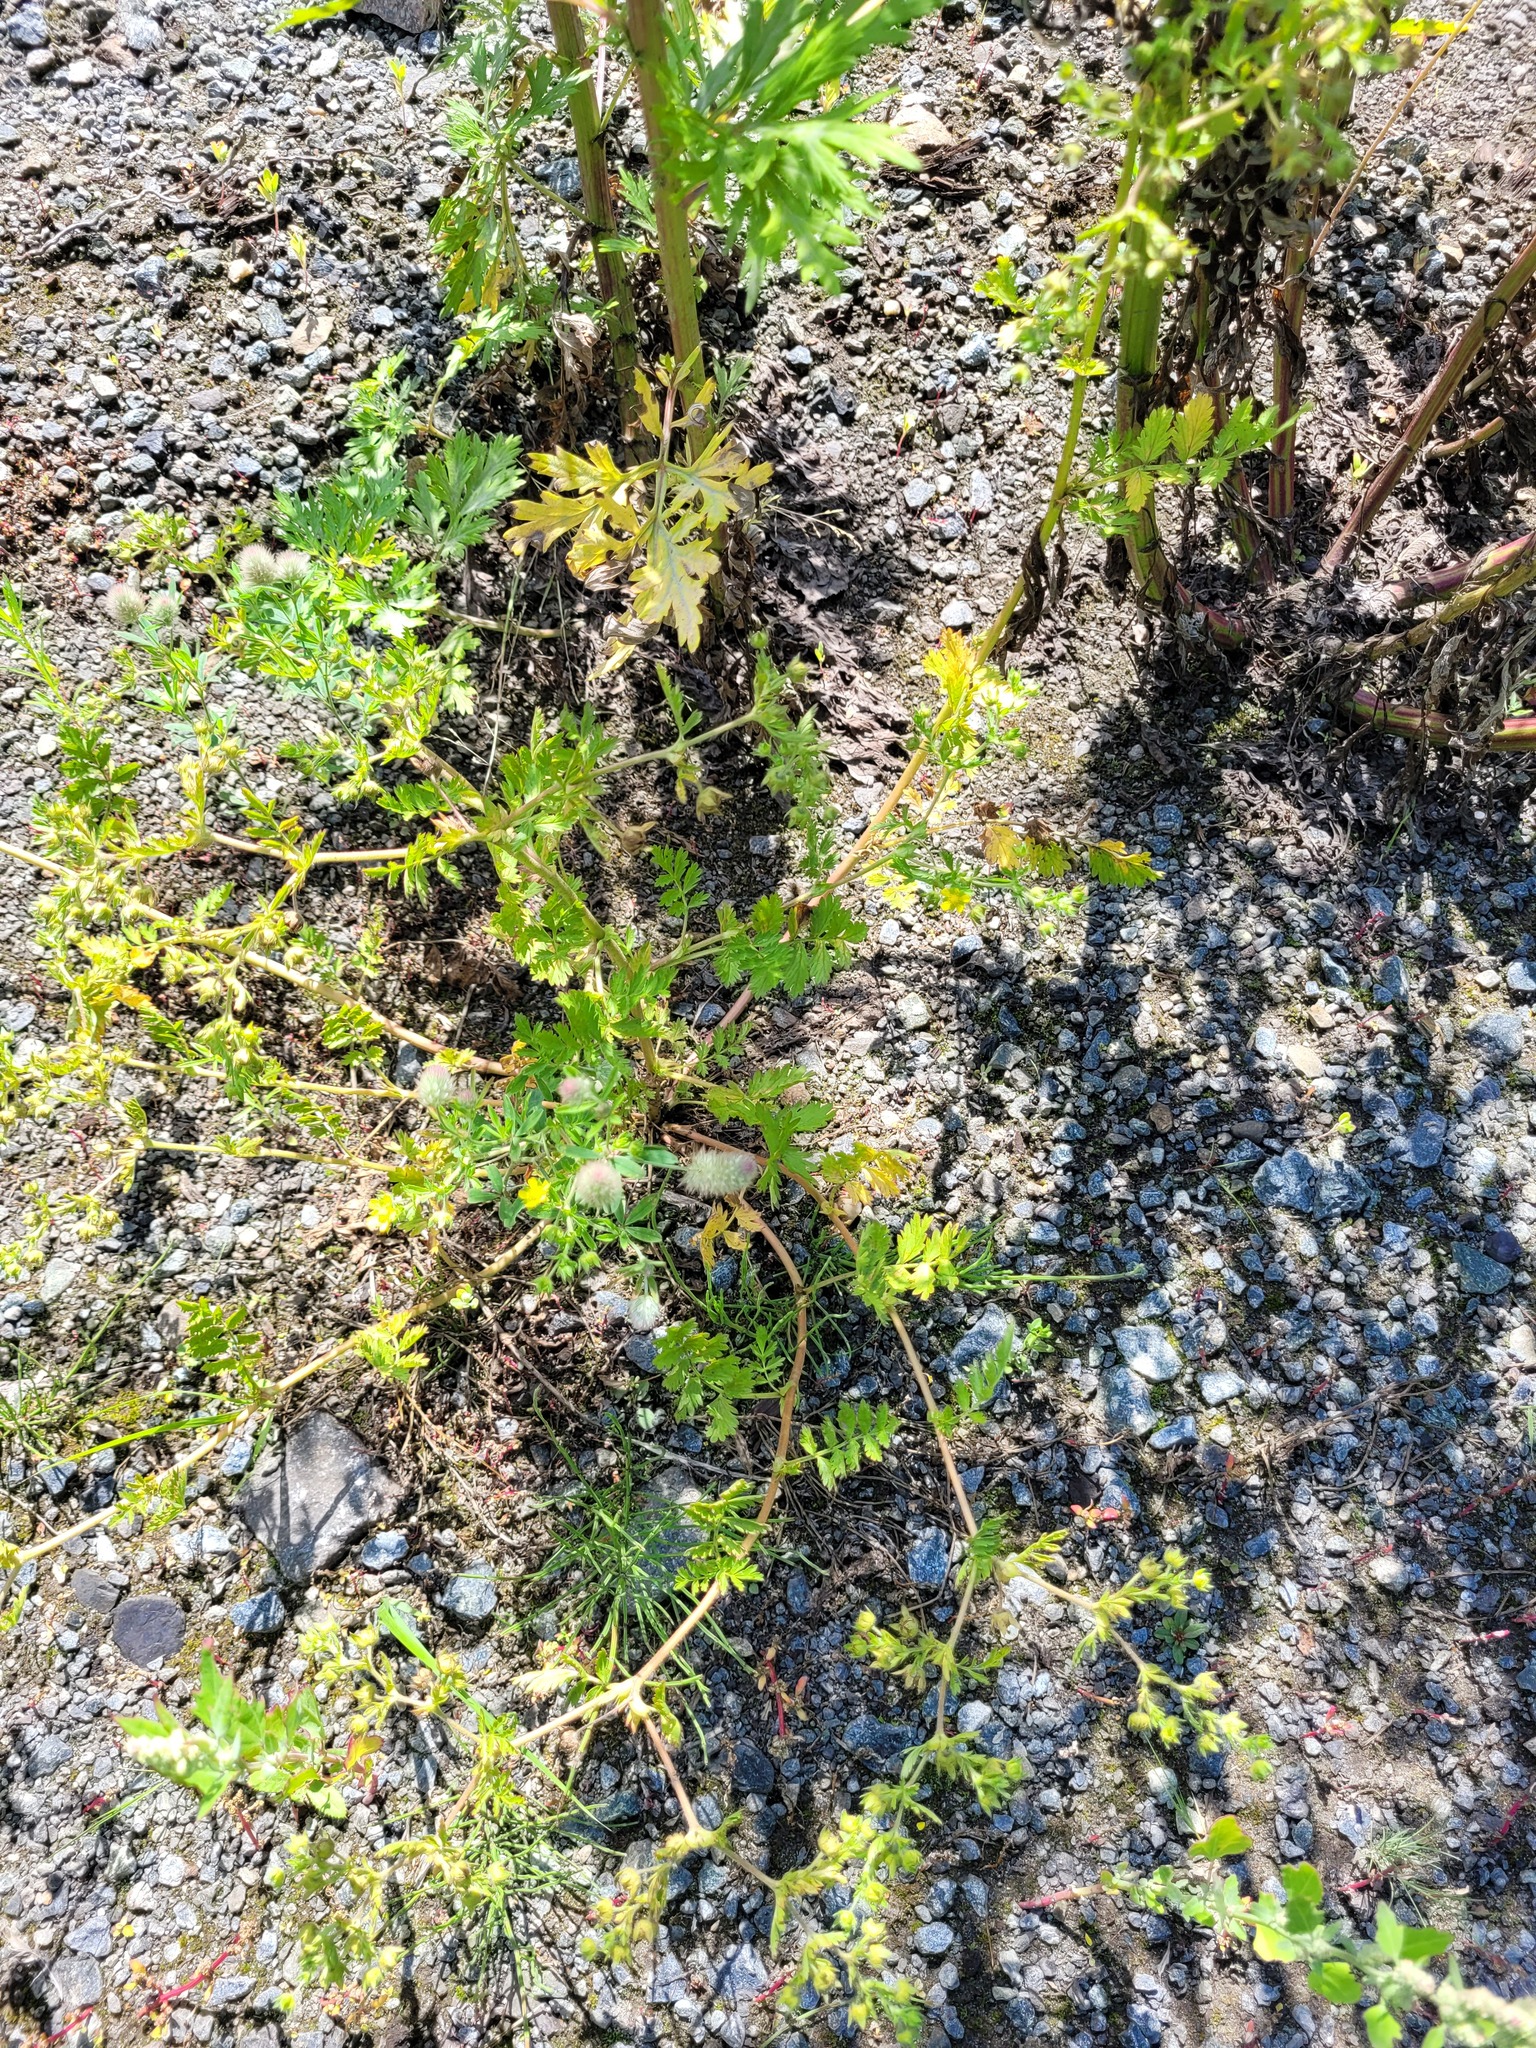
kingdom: Plantae
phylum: Tracheophyta
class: Magnoliopsida
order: Fabales
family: Fabaceae
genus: Trifolium
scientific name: Trifolium arvense
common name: Hare's-foot clover
